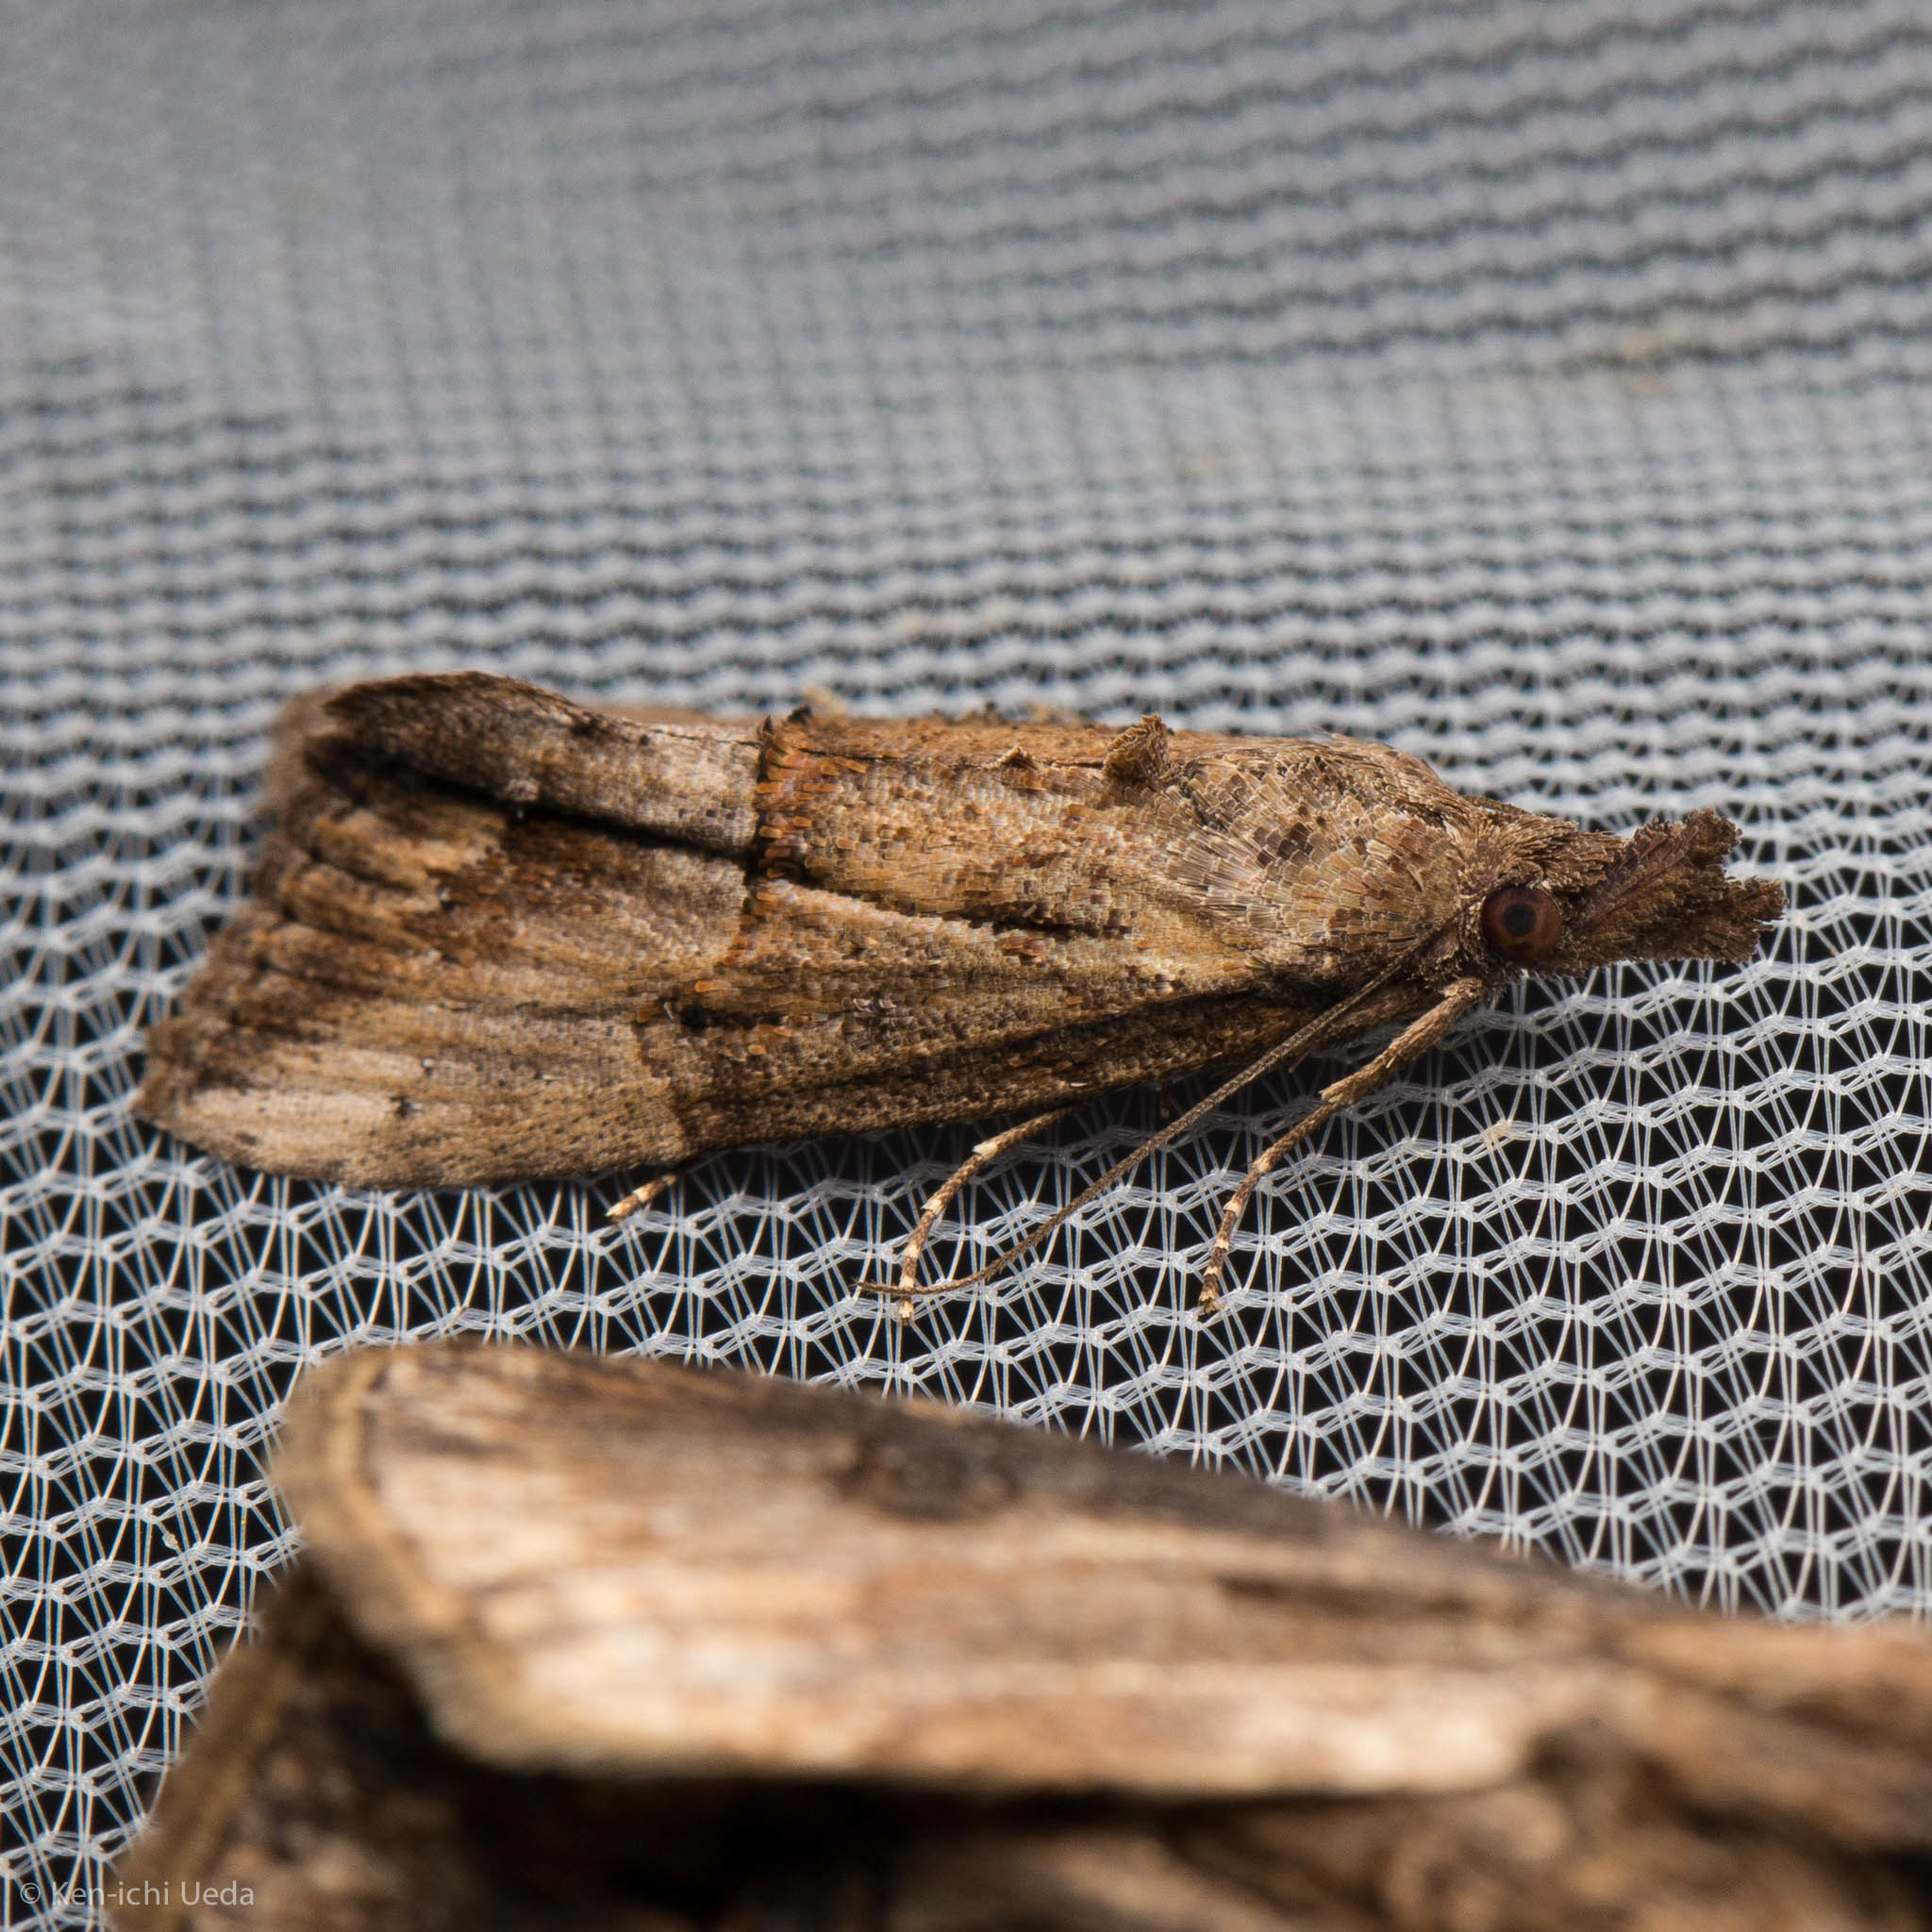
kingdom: Animalia
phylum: Arthropoda
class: Insecta
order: Lepidoptera
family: Erebidae
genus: Hypena
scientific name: Hypena scabra
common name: Green cloverworm
